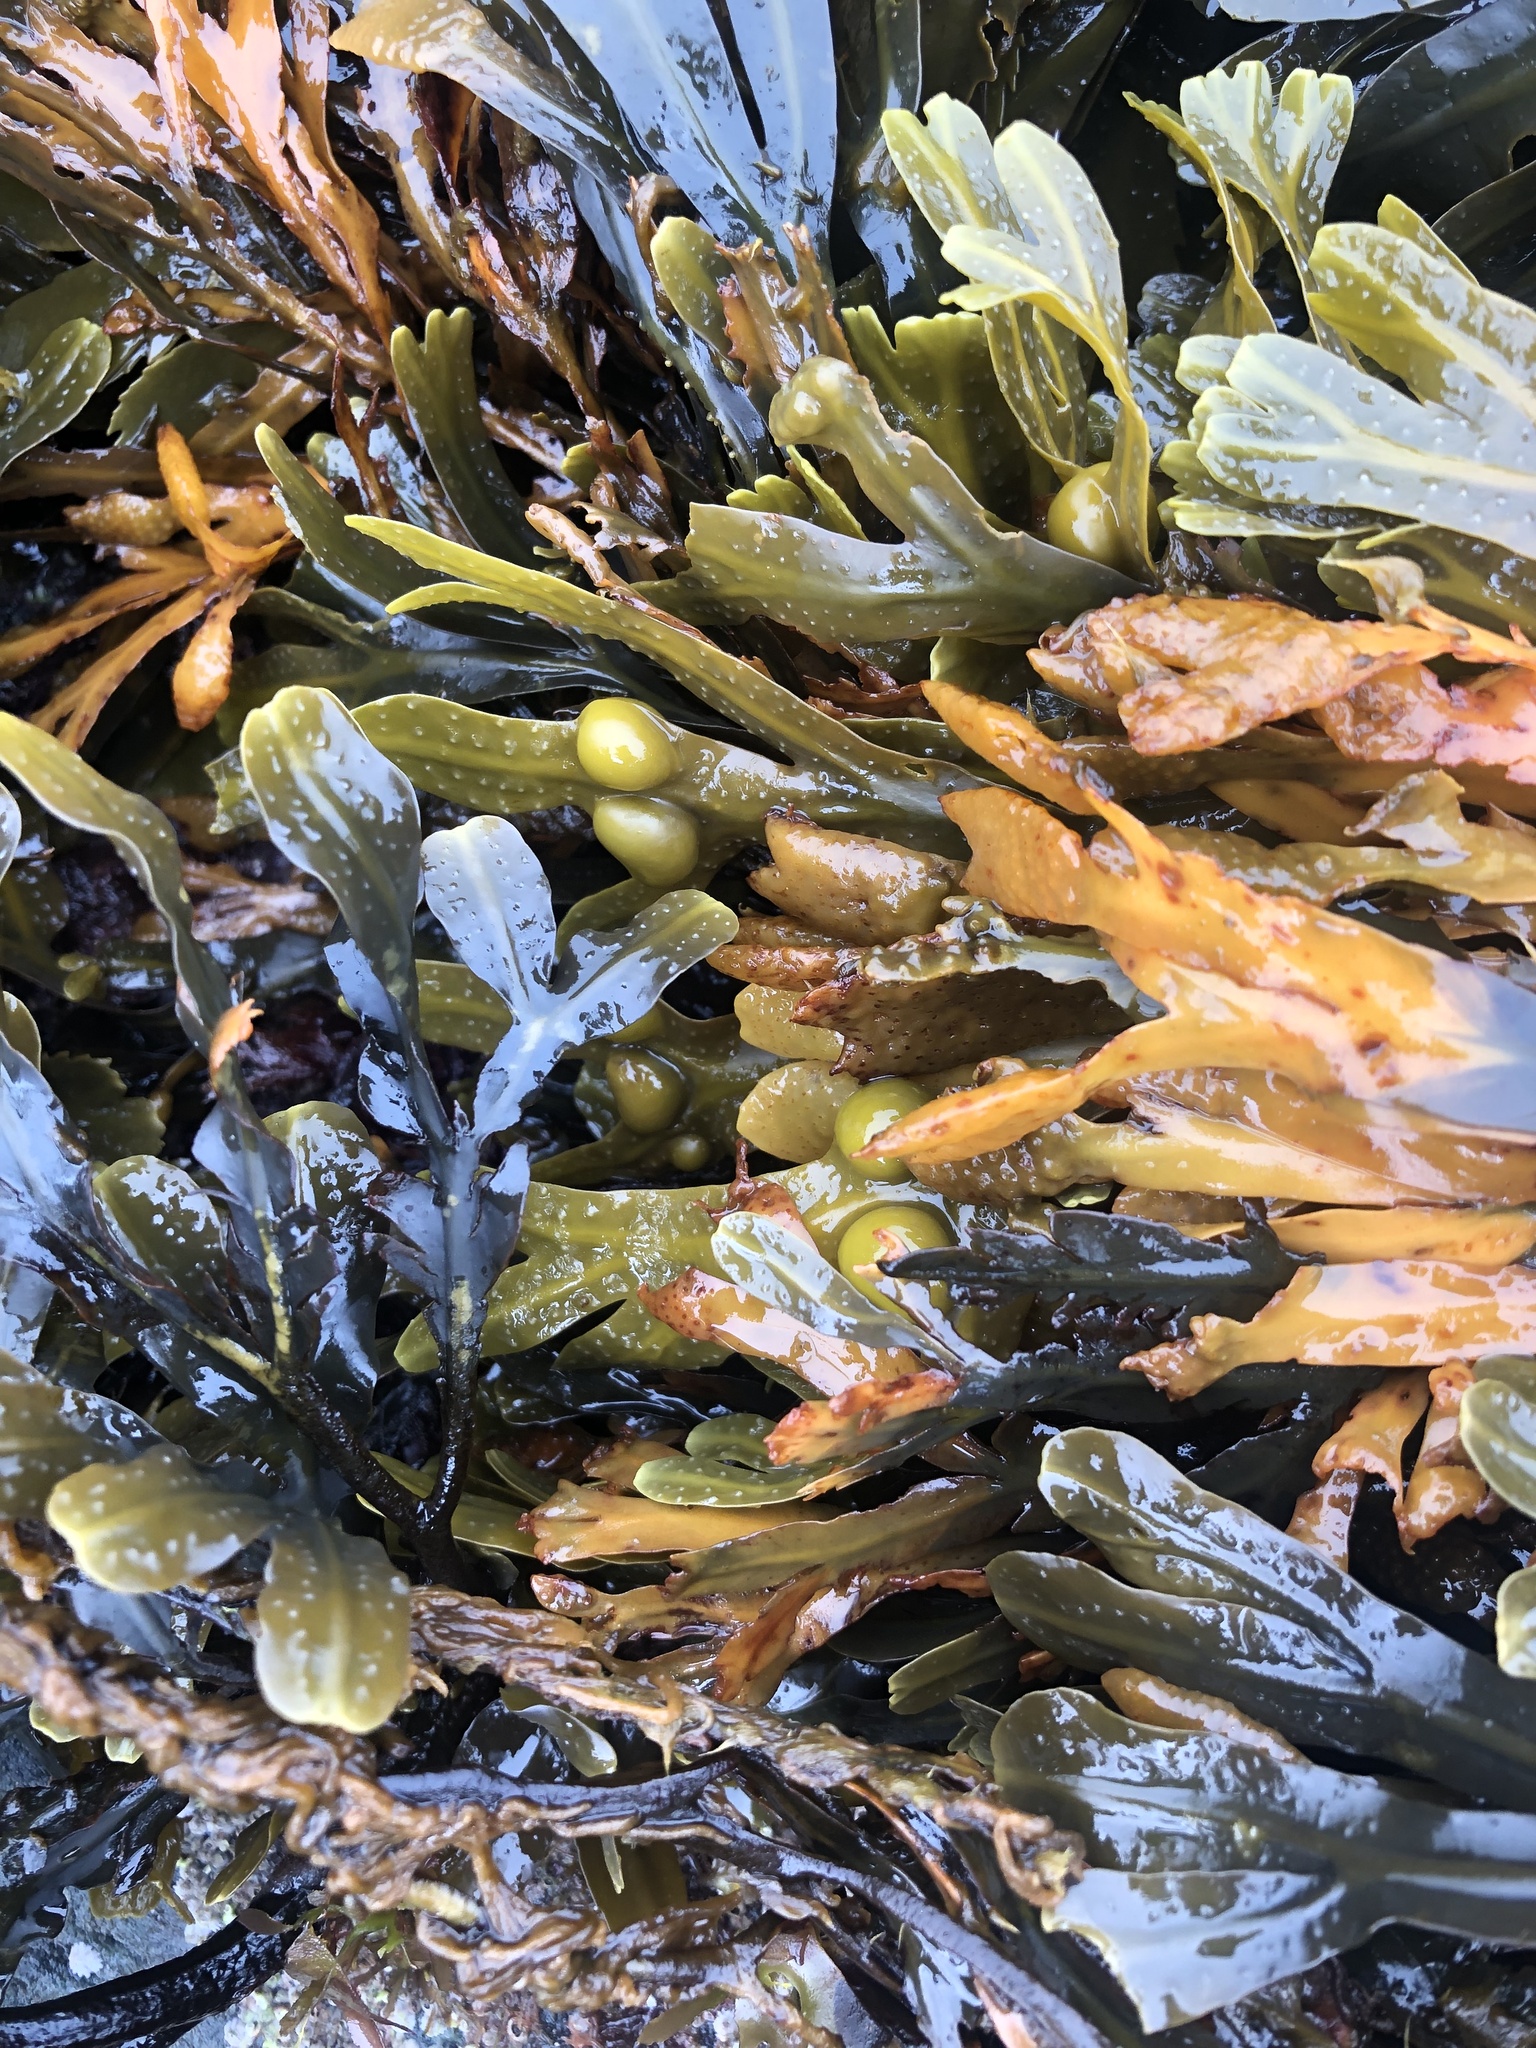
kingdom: Chromista
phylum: Ochrophyta
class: Phaeophyceae
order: Fucales
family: Fucaceae
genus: Fucus
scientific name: Fucus vesiculosus
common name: Bladder wrack
